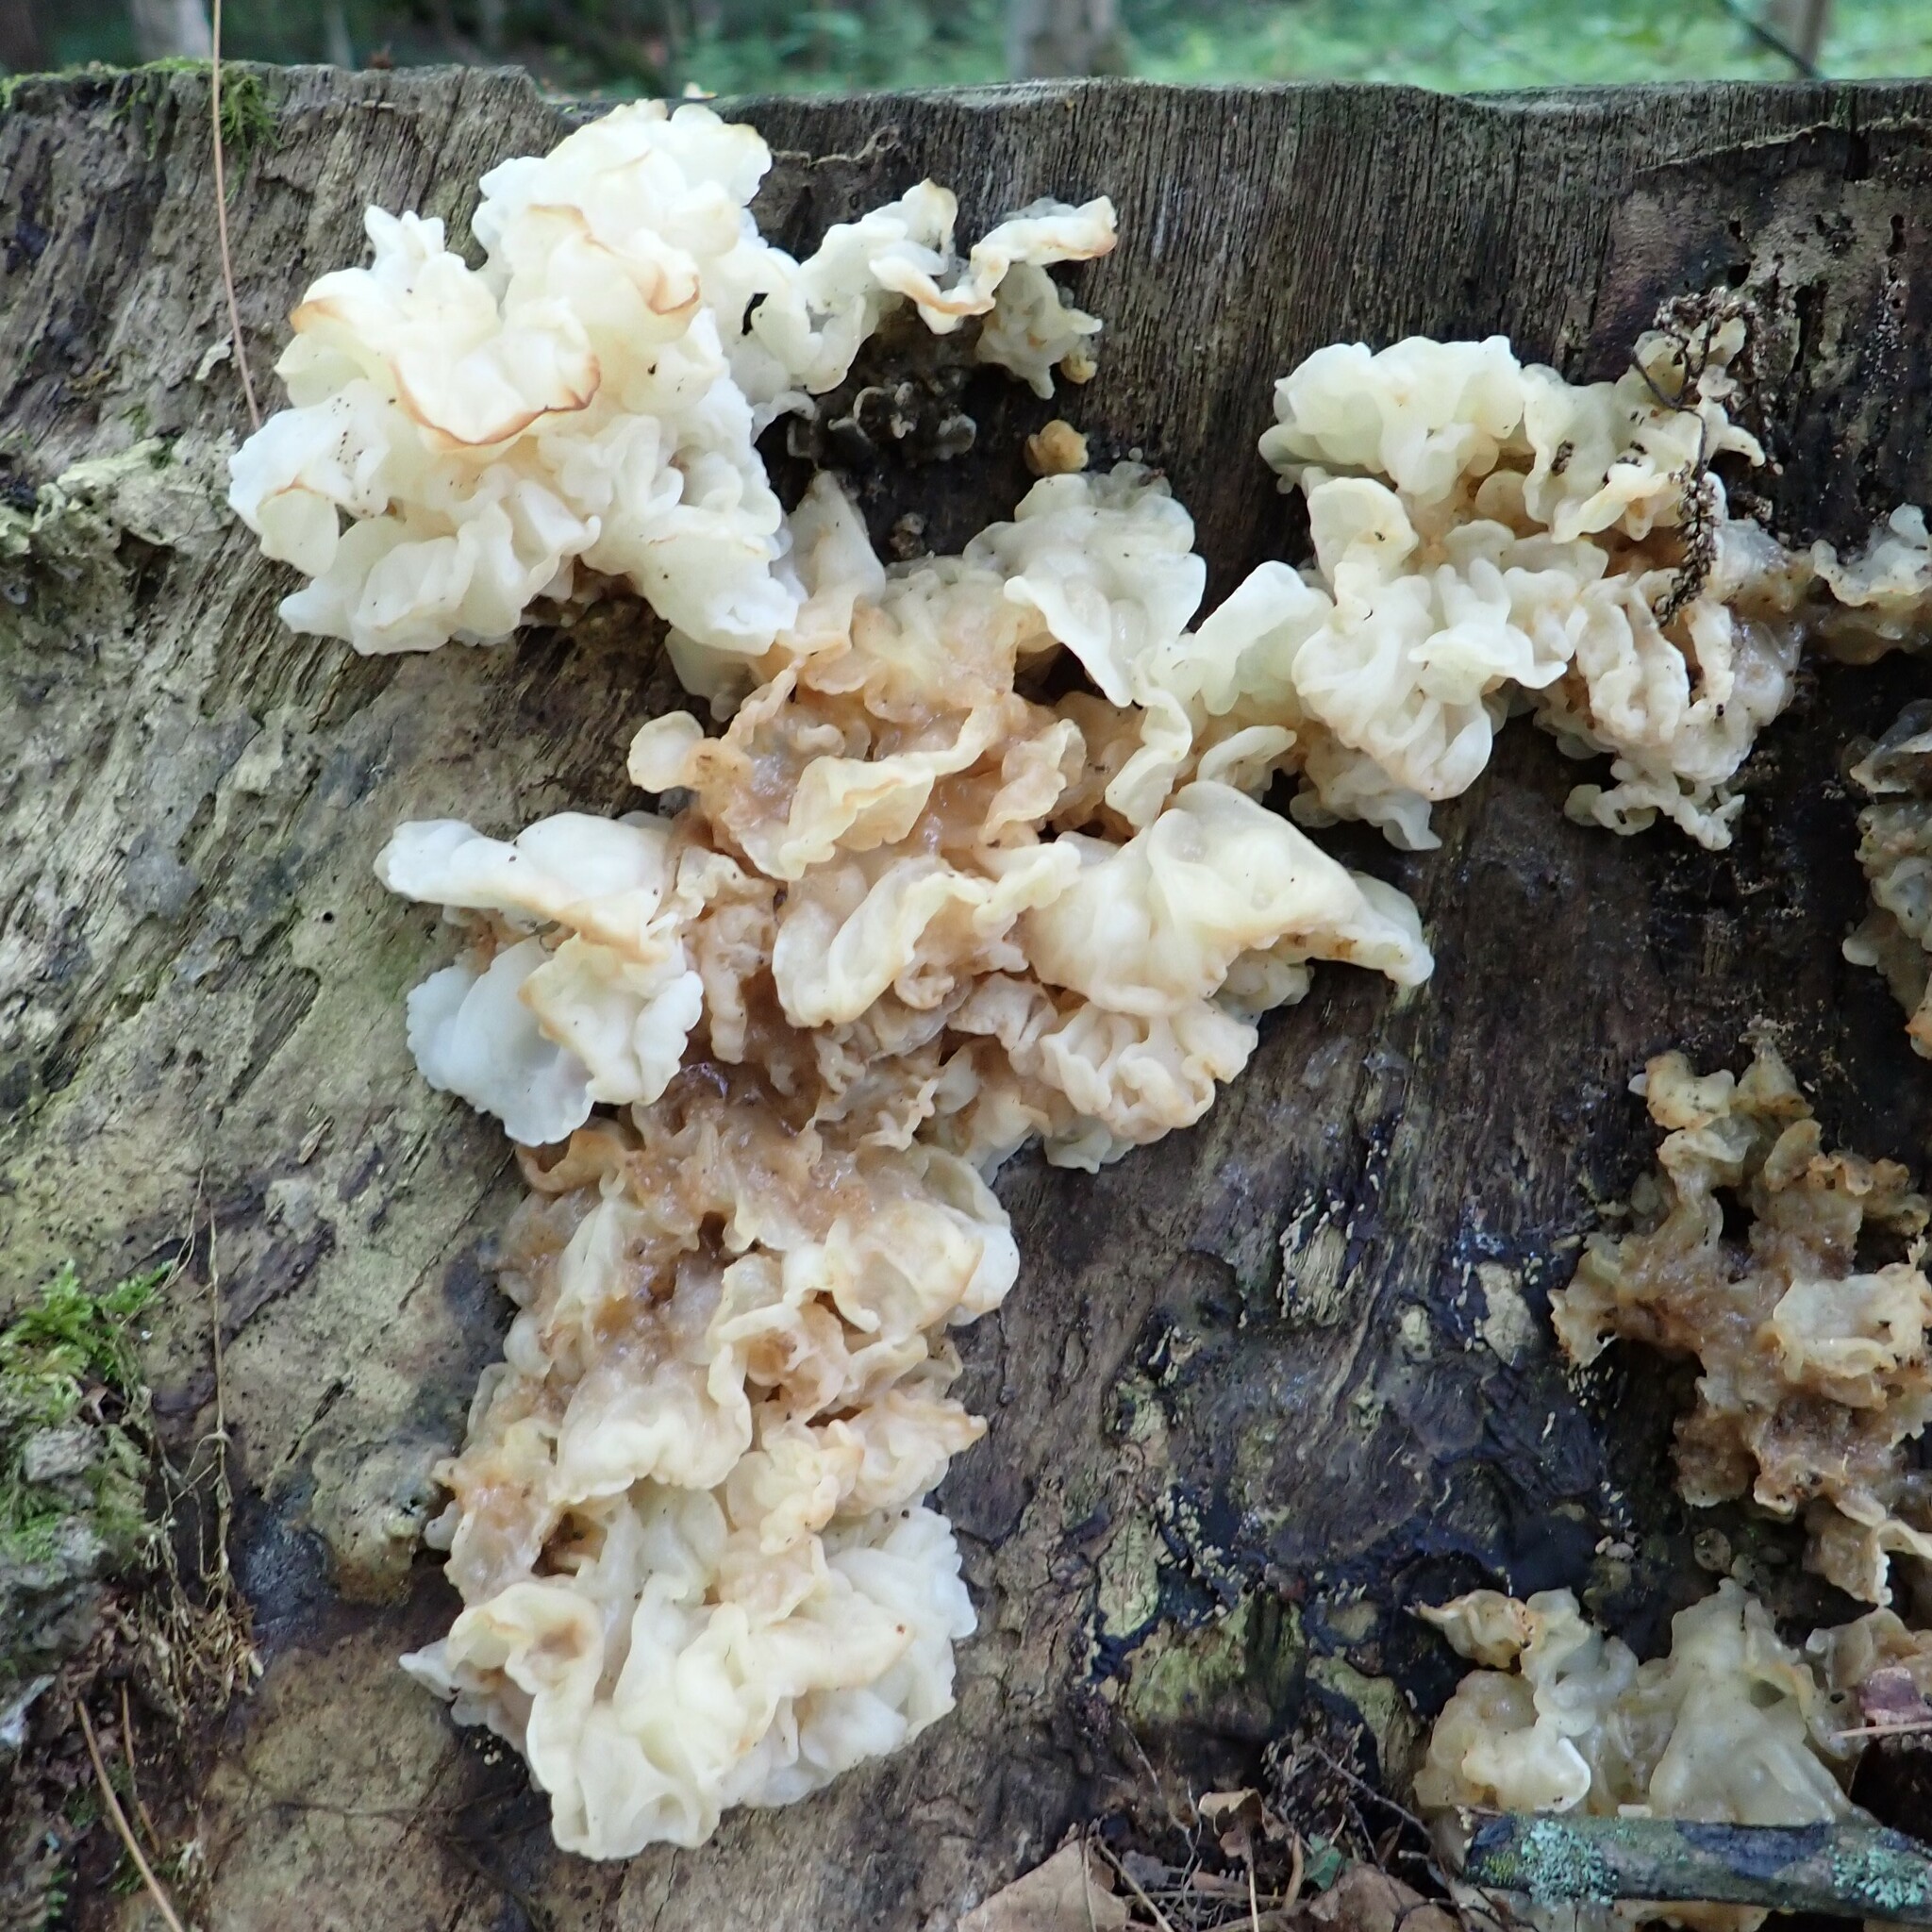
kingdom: Fungi
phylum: Basidiomycota
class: Agaricomycetes
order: Auriculariales
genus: Ductifera
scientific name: Ductifera pululahuana
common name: White jelly fungus
